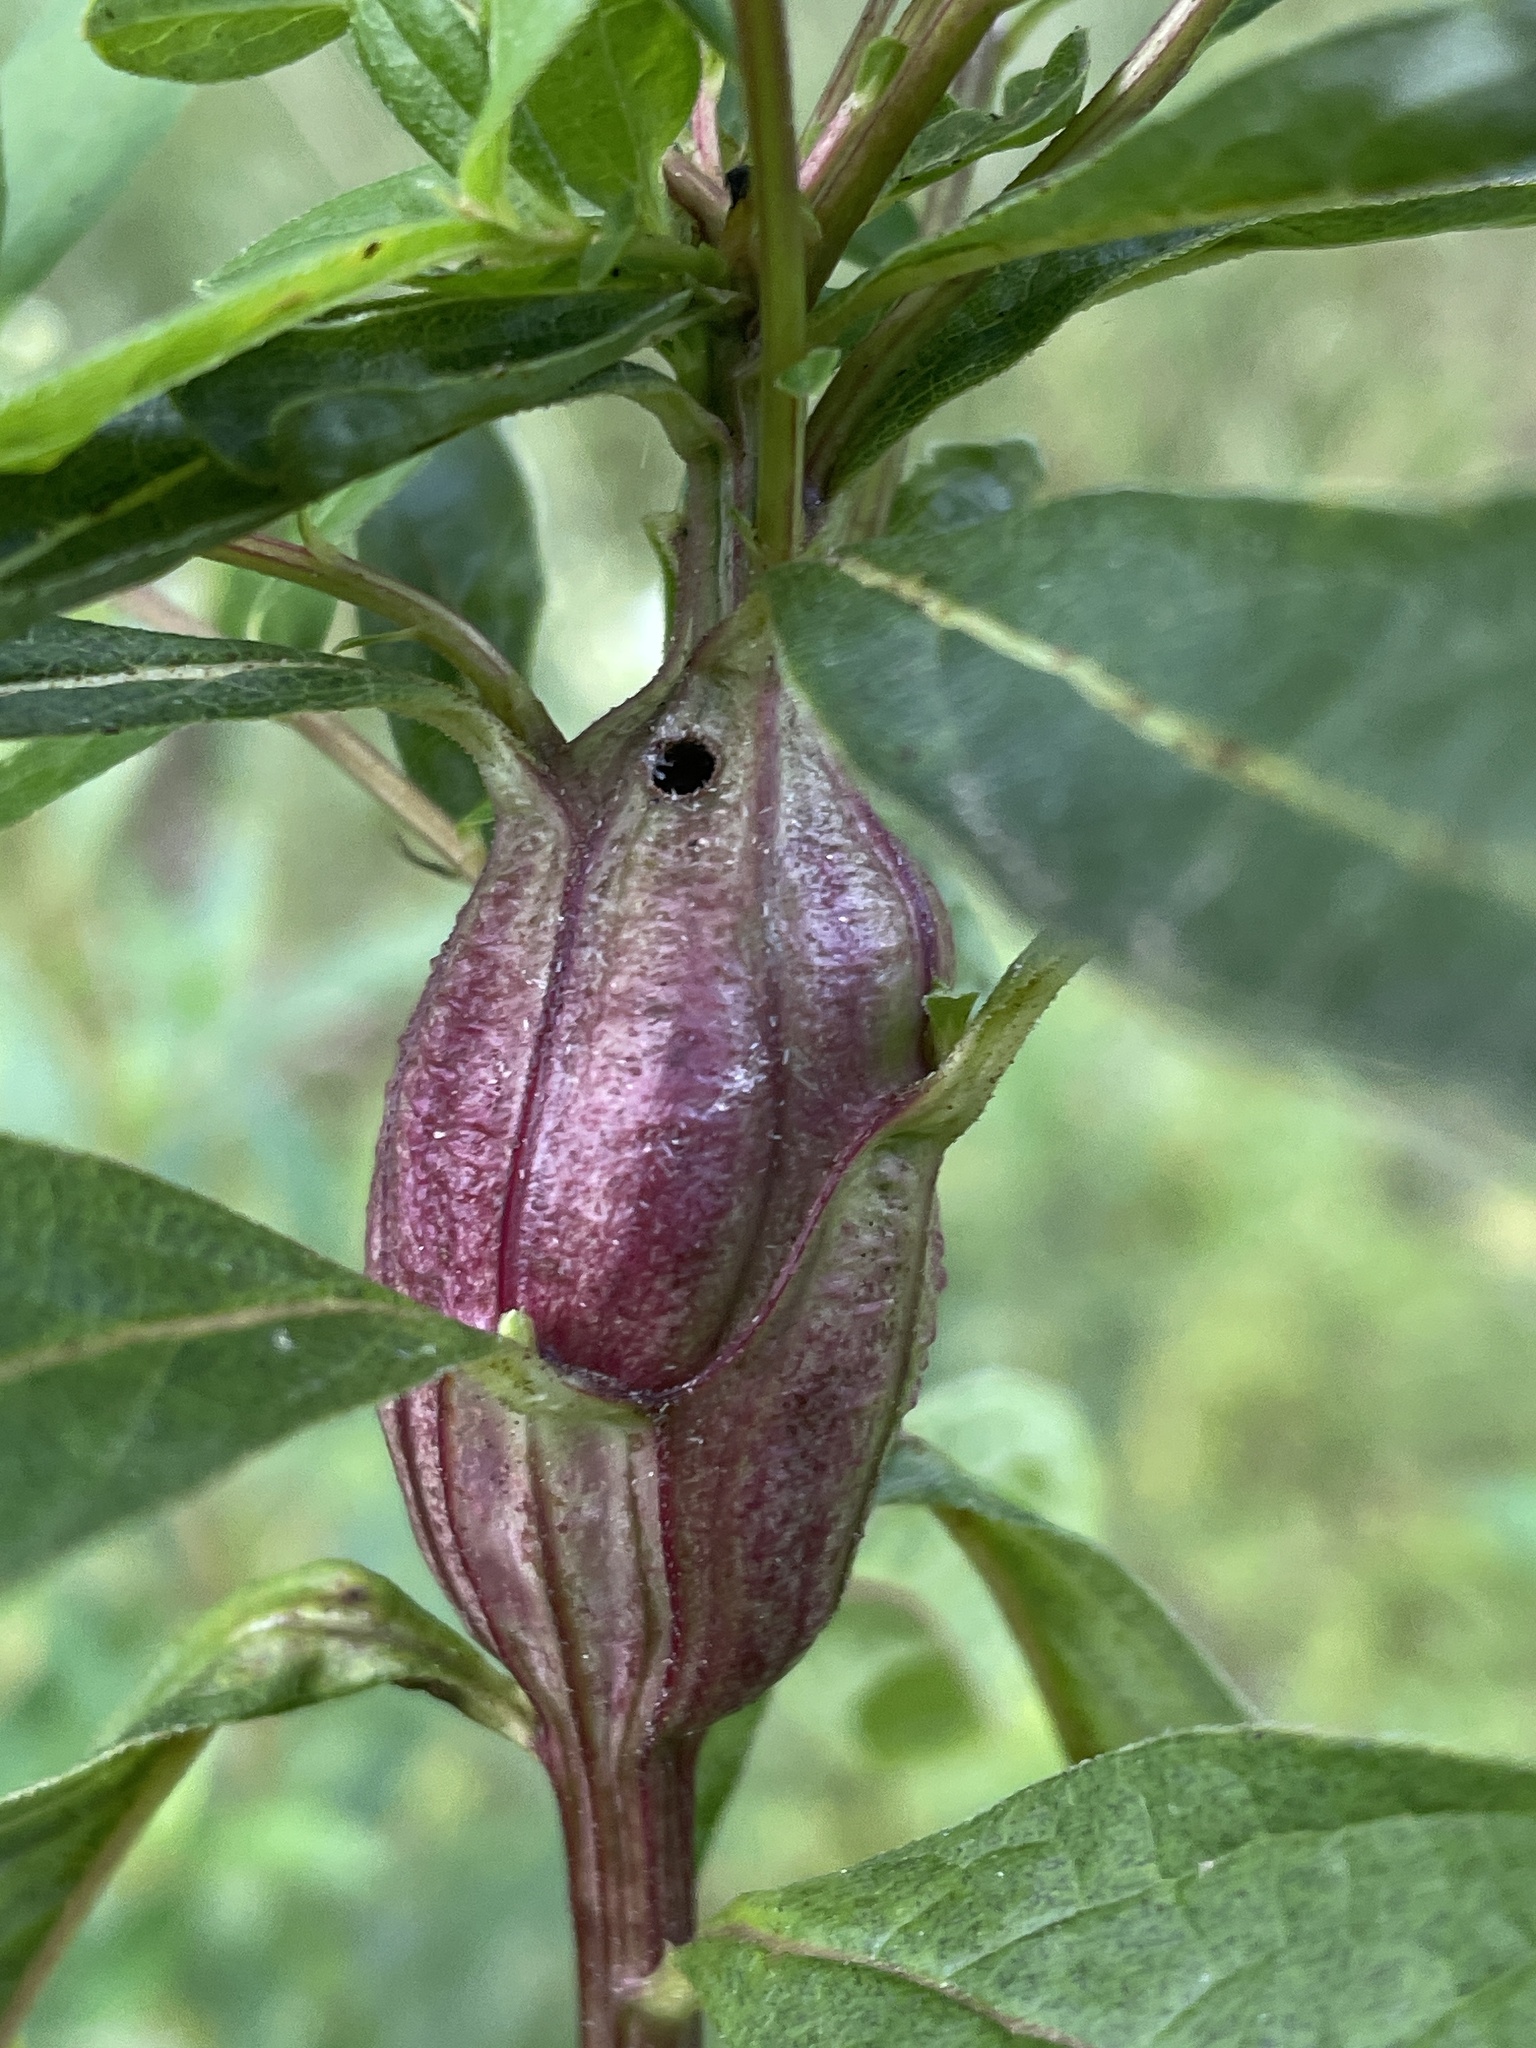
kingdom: Animalia
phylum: Arthropoda
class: Insecta
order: Lepidoptera
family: Gelechiidae
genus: Gnorimoschema
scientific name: Gnorimoschema
